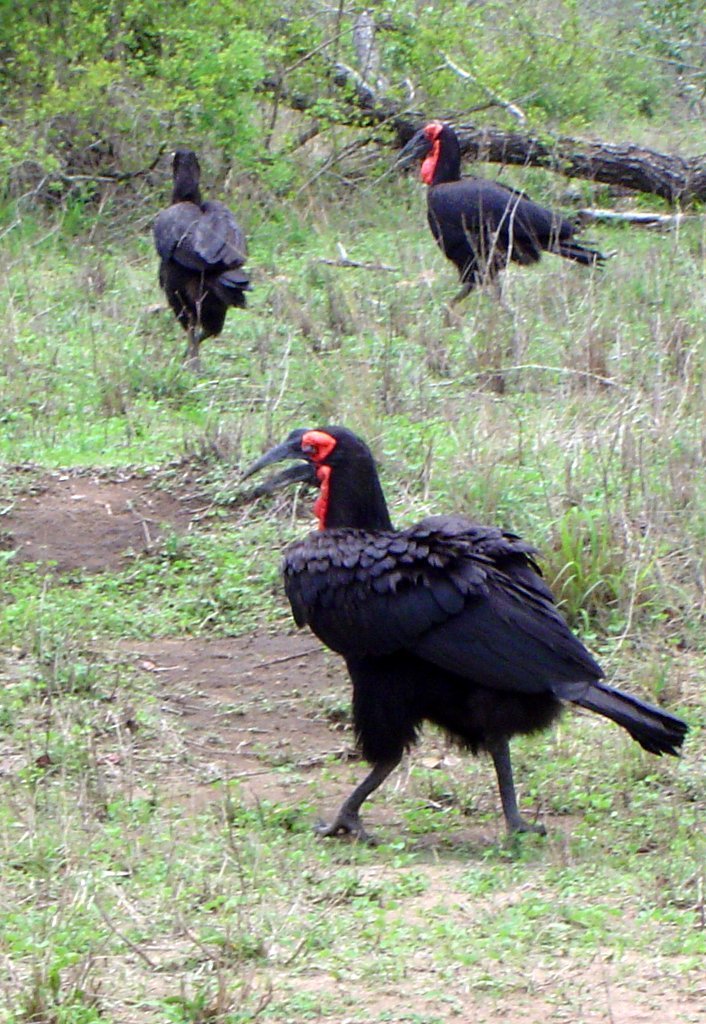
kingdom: Animalia
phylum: Chordata
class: Aves
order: Bucerotiformes
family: Bucorvidae
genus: Bucorvus
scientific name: Bucorvus leadbeateri
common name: Southern ground-hornbill
